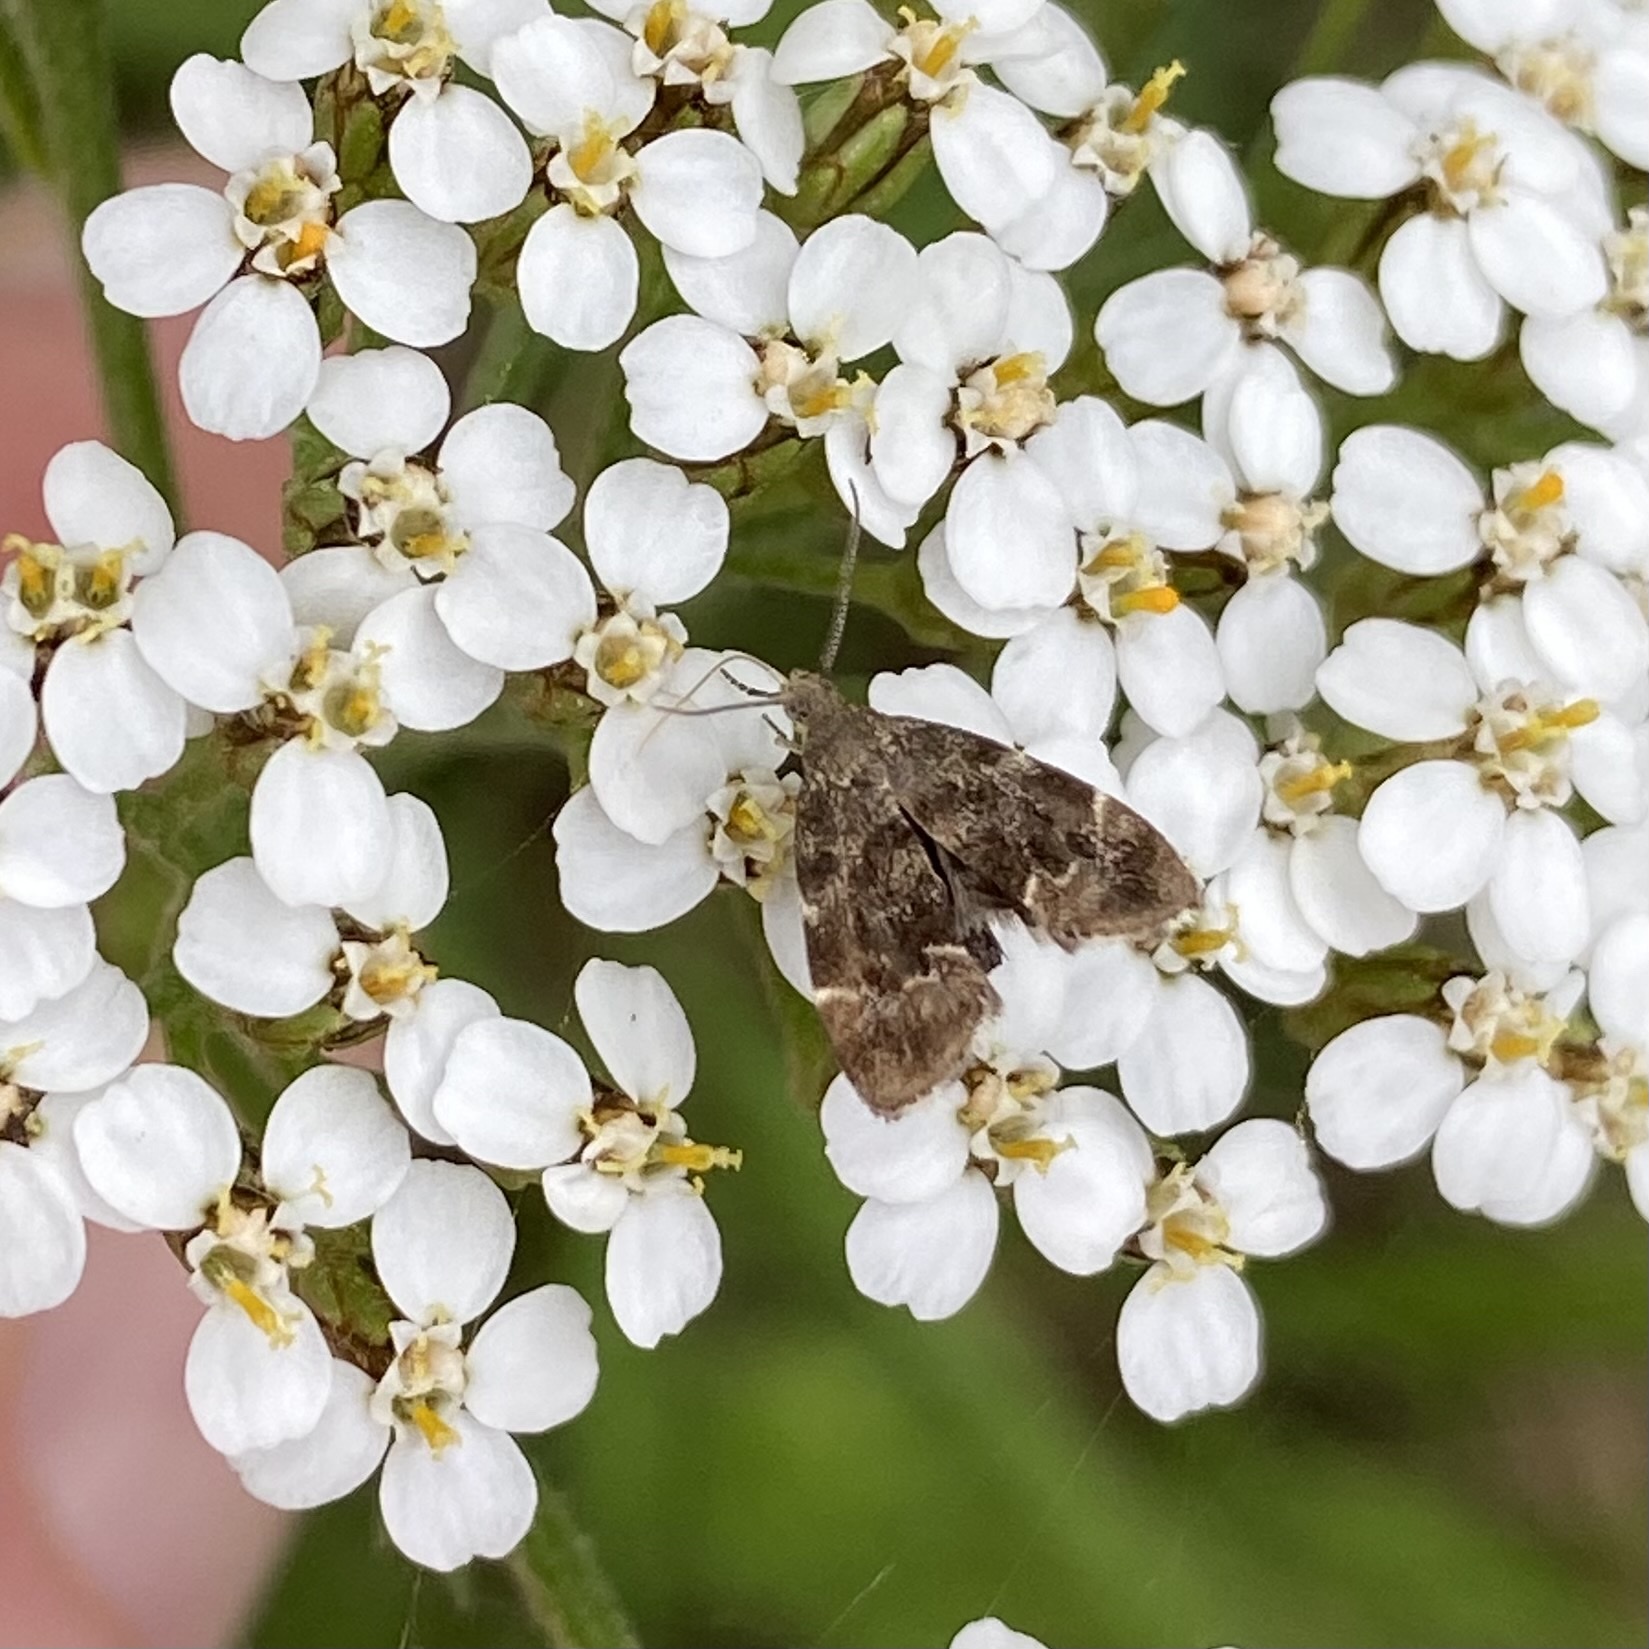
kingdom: Animalia
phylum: Arthropoda
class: Insecta
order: Lepidoptera
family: Choreutidae
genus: Anthophila
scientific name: Anthophila fabriciana
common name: Nettle-tap
